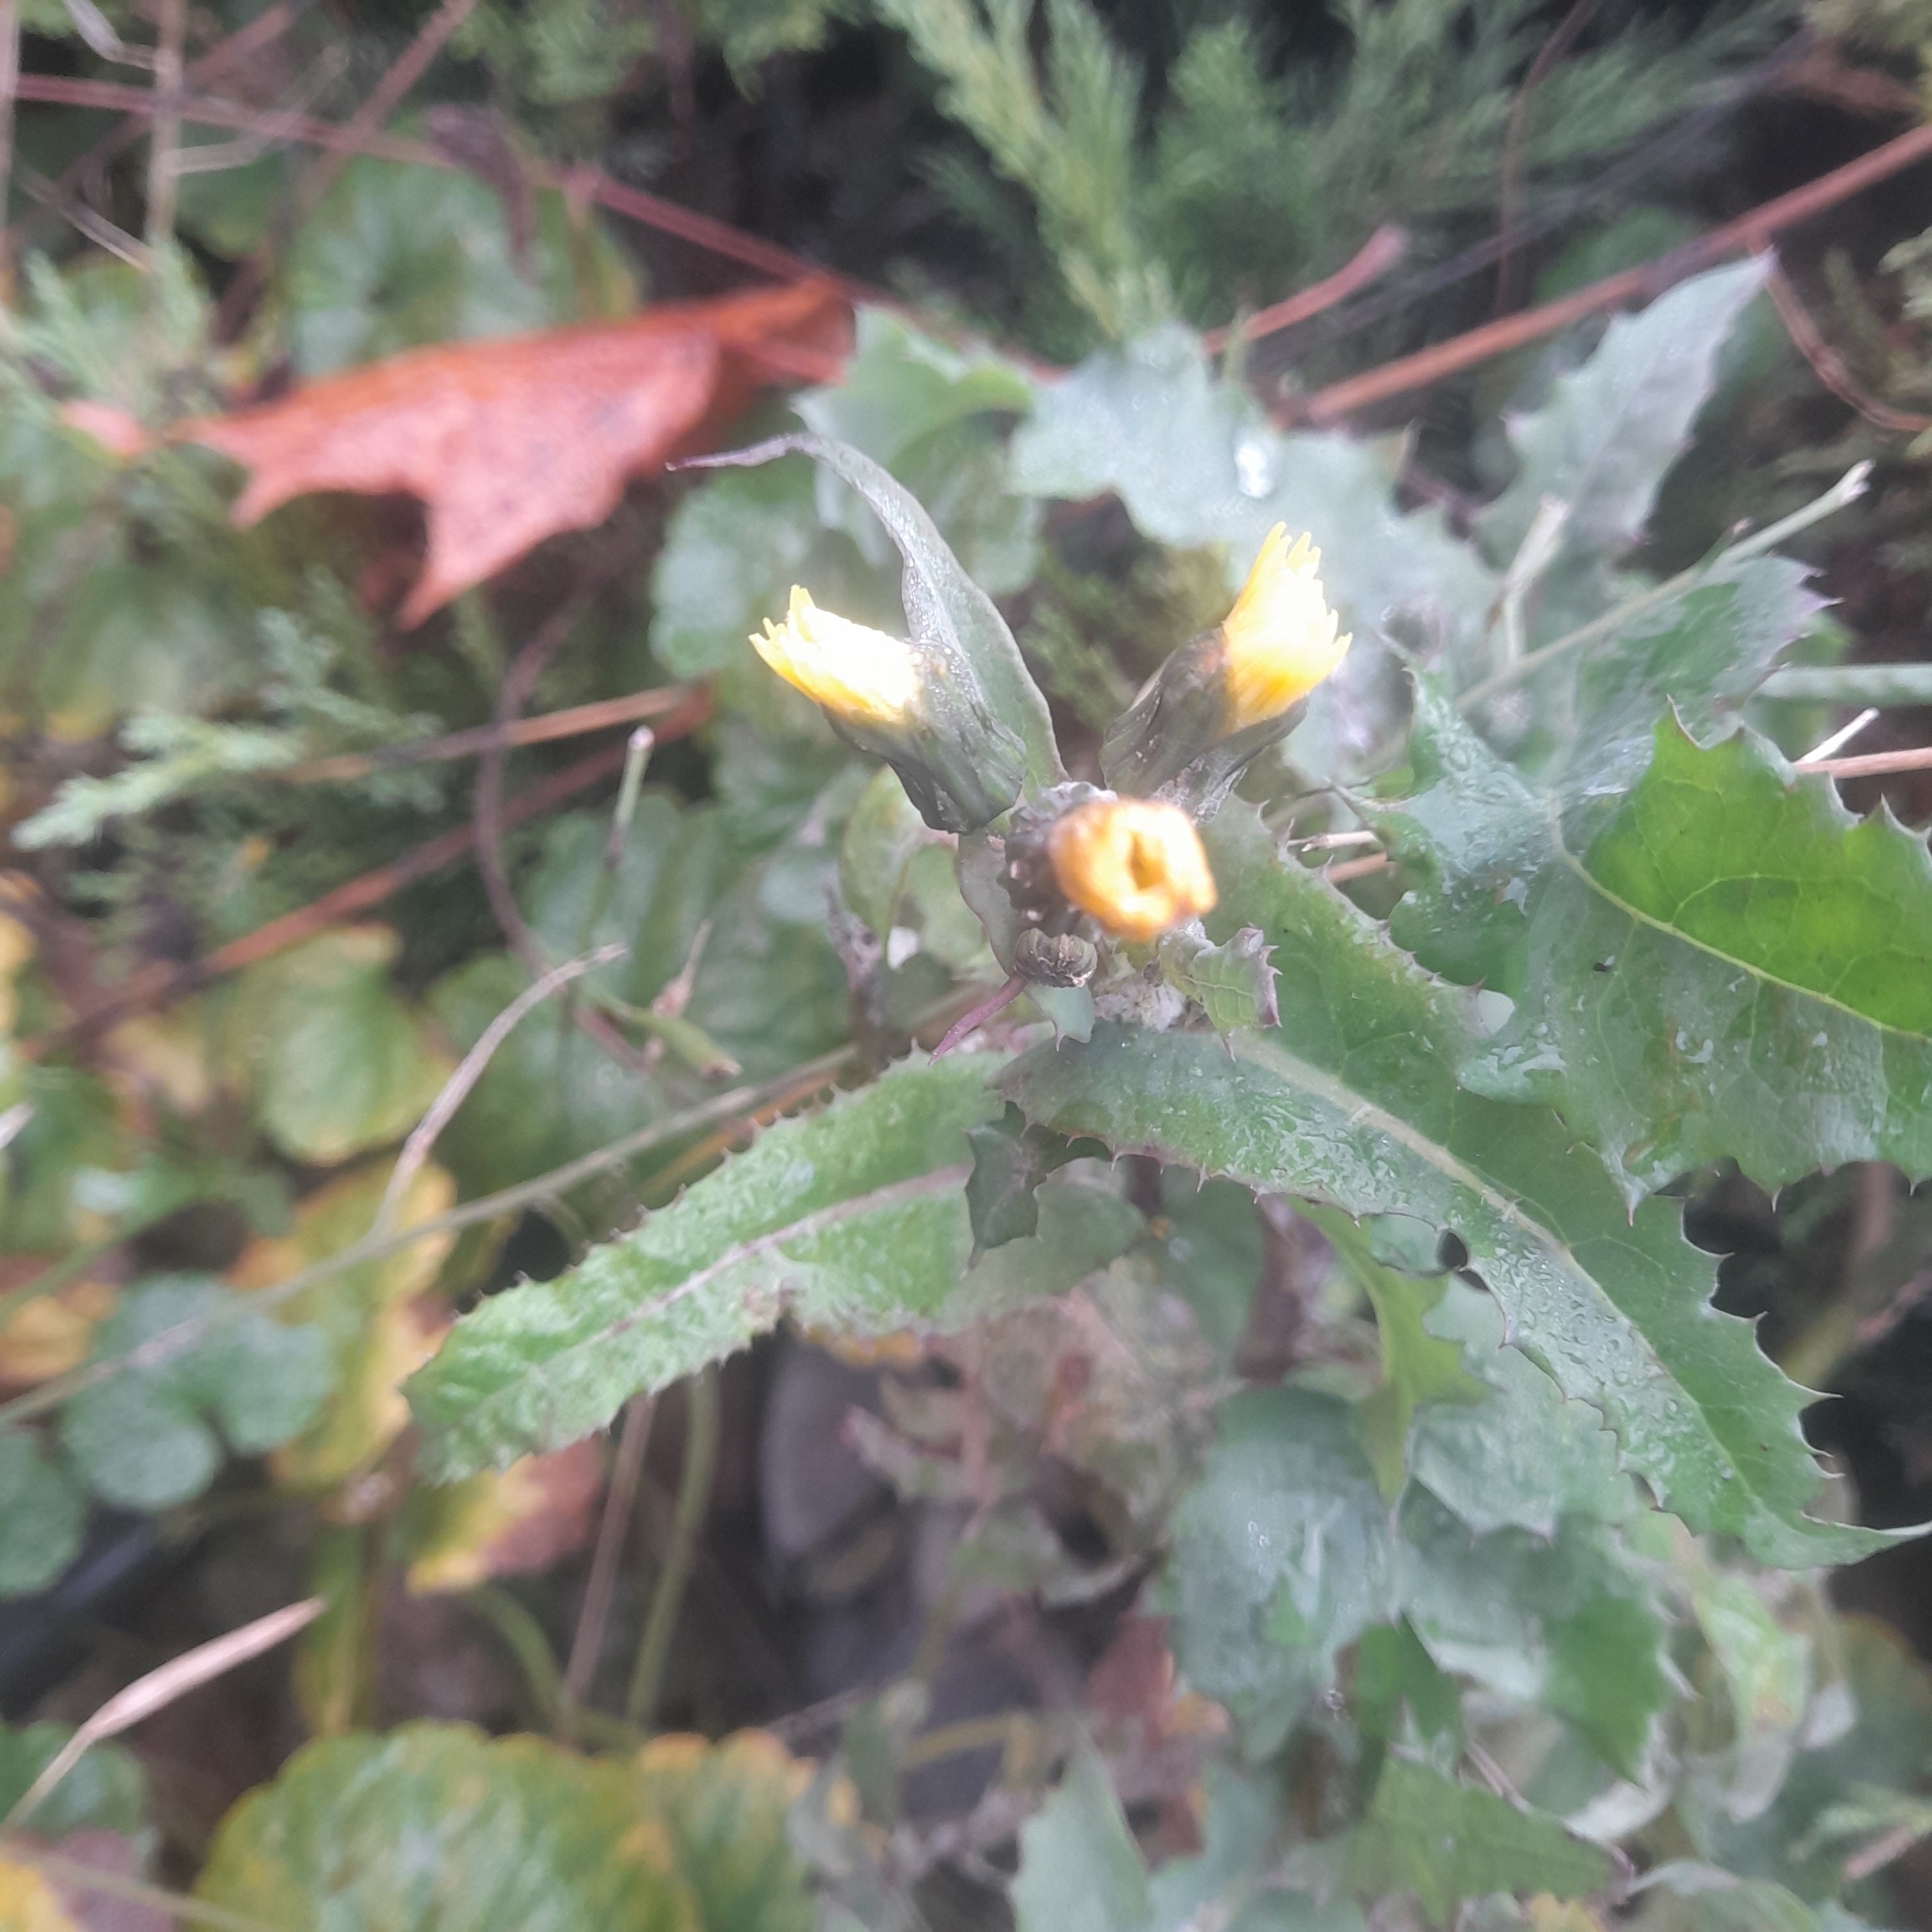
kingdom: Plantae
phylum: Tracheophyta
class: Magnoliopsida
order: Asterales
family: Asteraceae
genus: Sonchus
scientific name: Sonchus oleraceus
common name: Common sowthistle
